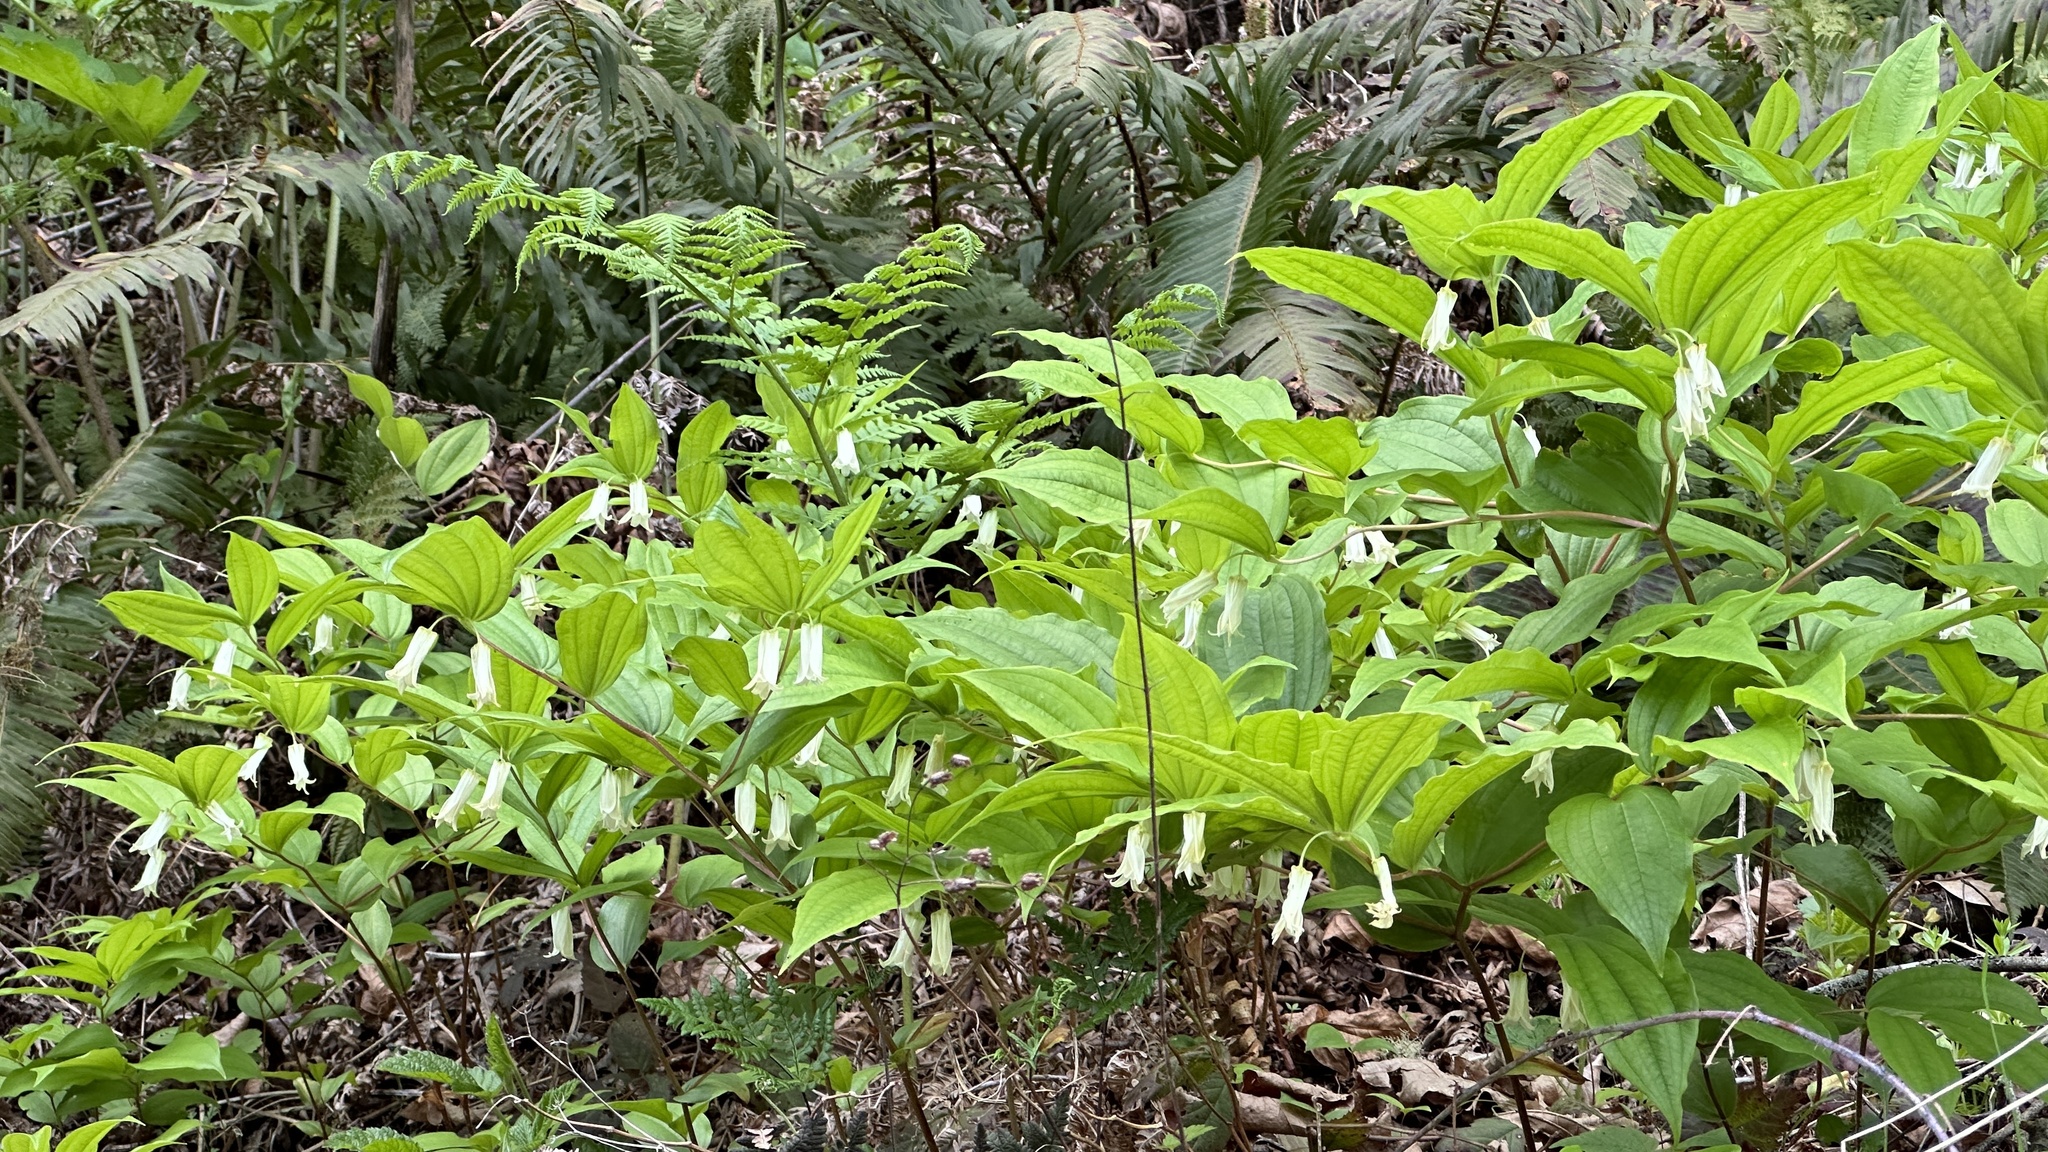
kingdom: Plantae
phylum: Tracheophyta
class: Liliopsida
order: Liliales
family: Liliaceae
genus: Prosartes
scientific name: Prosartes smithii
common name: Fairy-lantern
